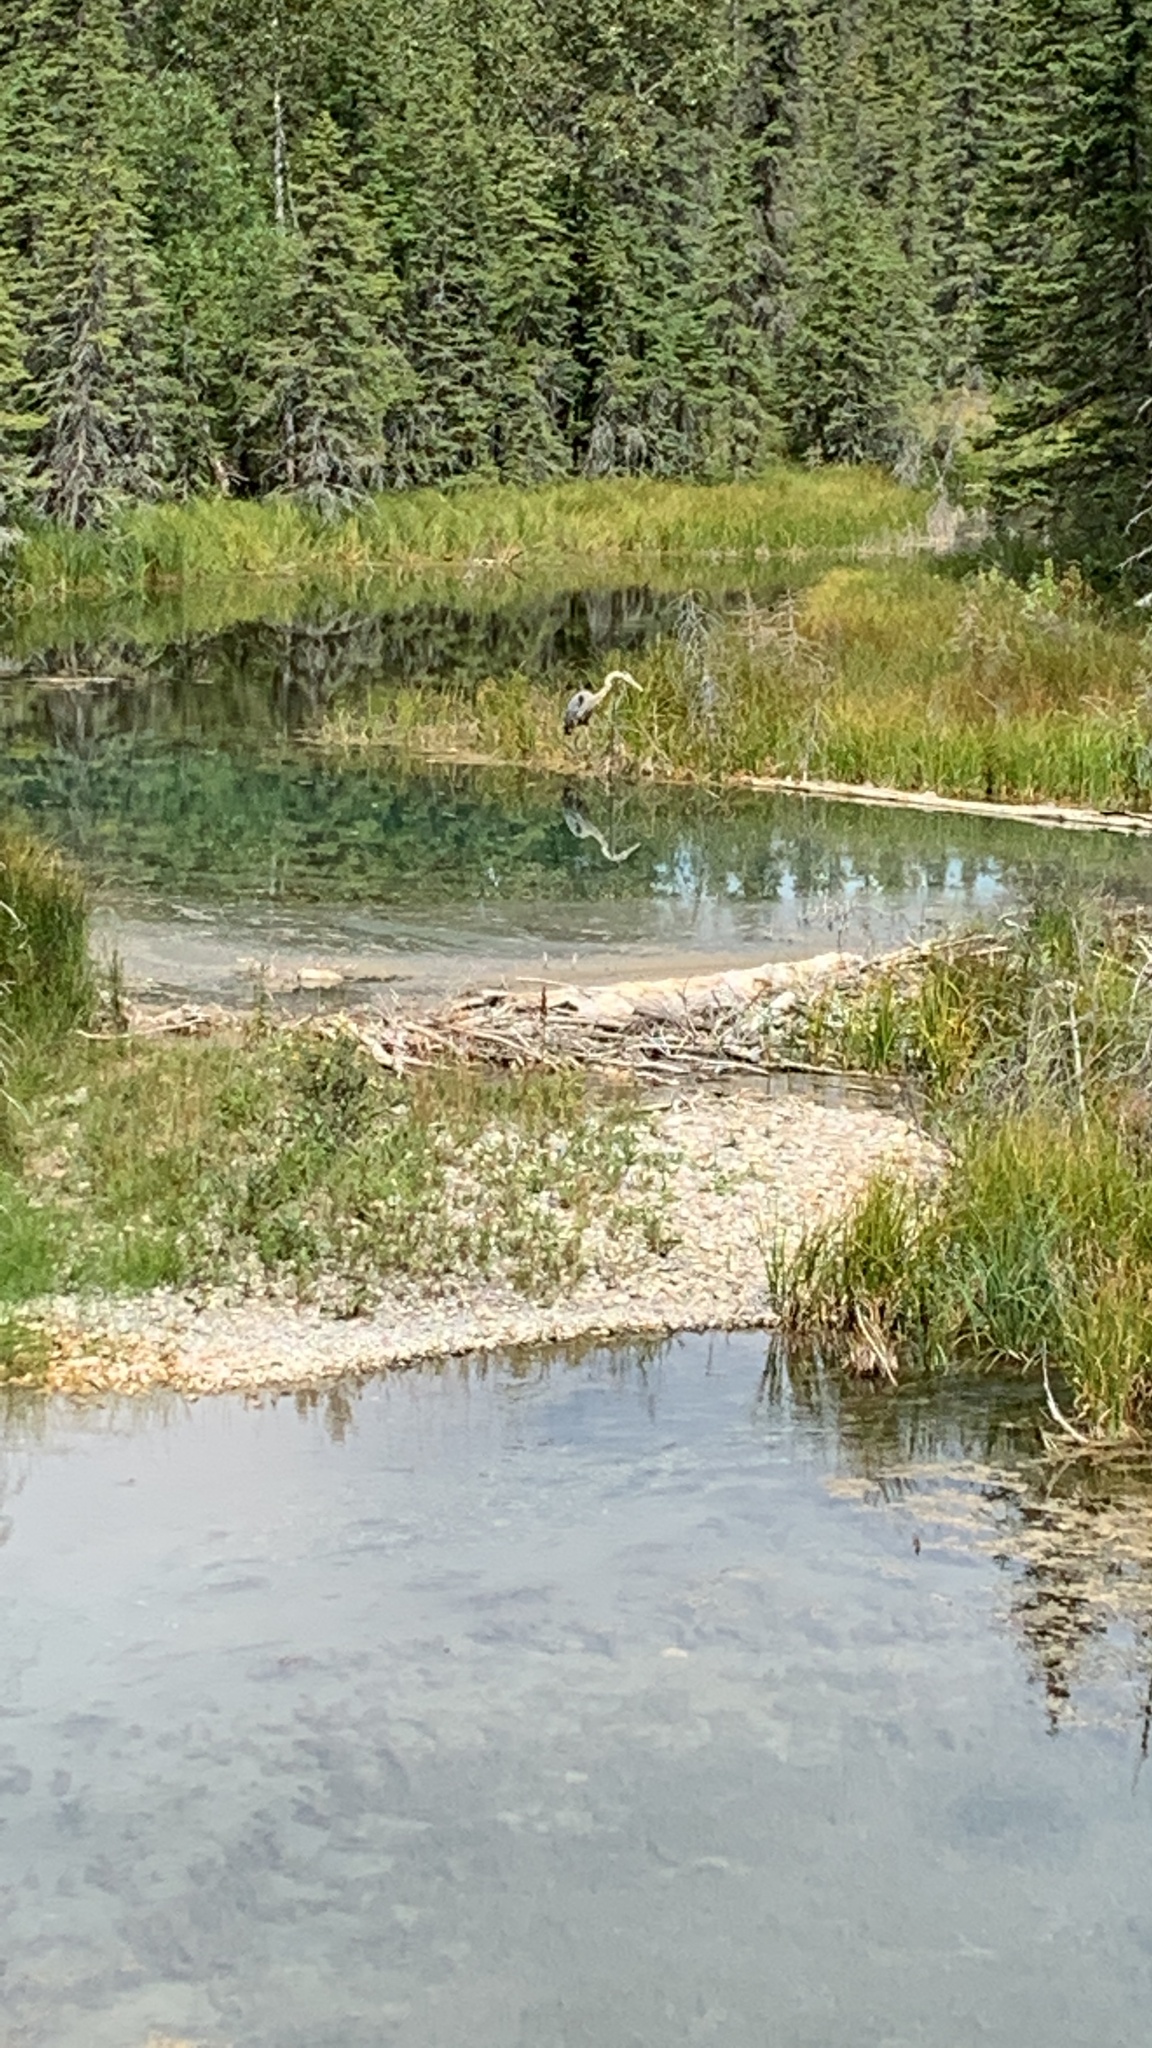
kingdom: Animalia
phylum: Chordata
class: Aves
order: Pelecaniformes
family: Ardeidae
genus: Ardea
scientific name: Ardea herodias
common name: Great blue heron
